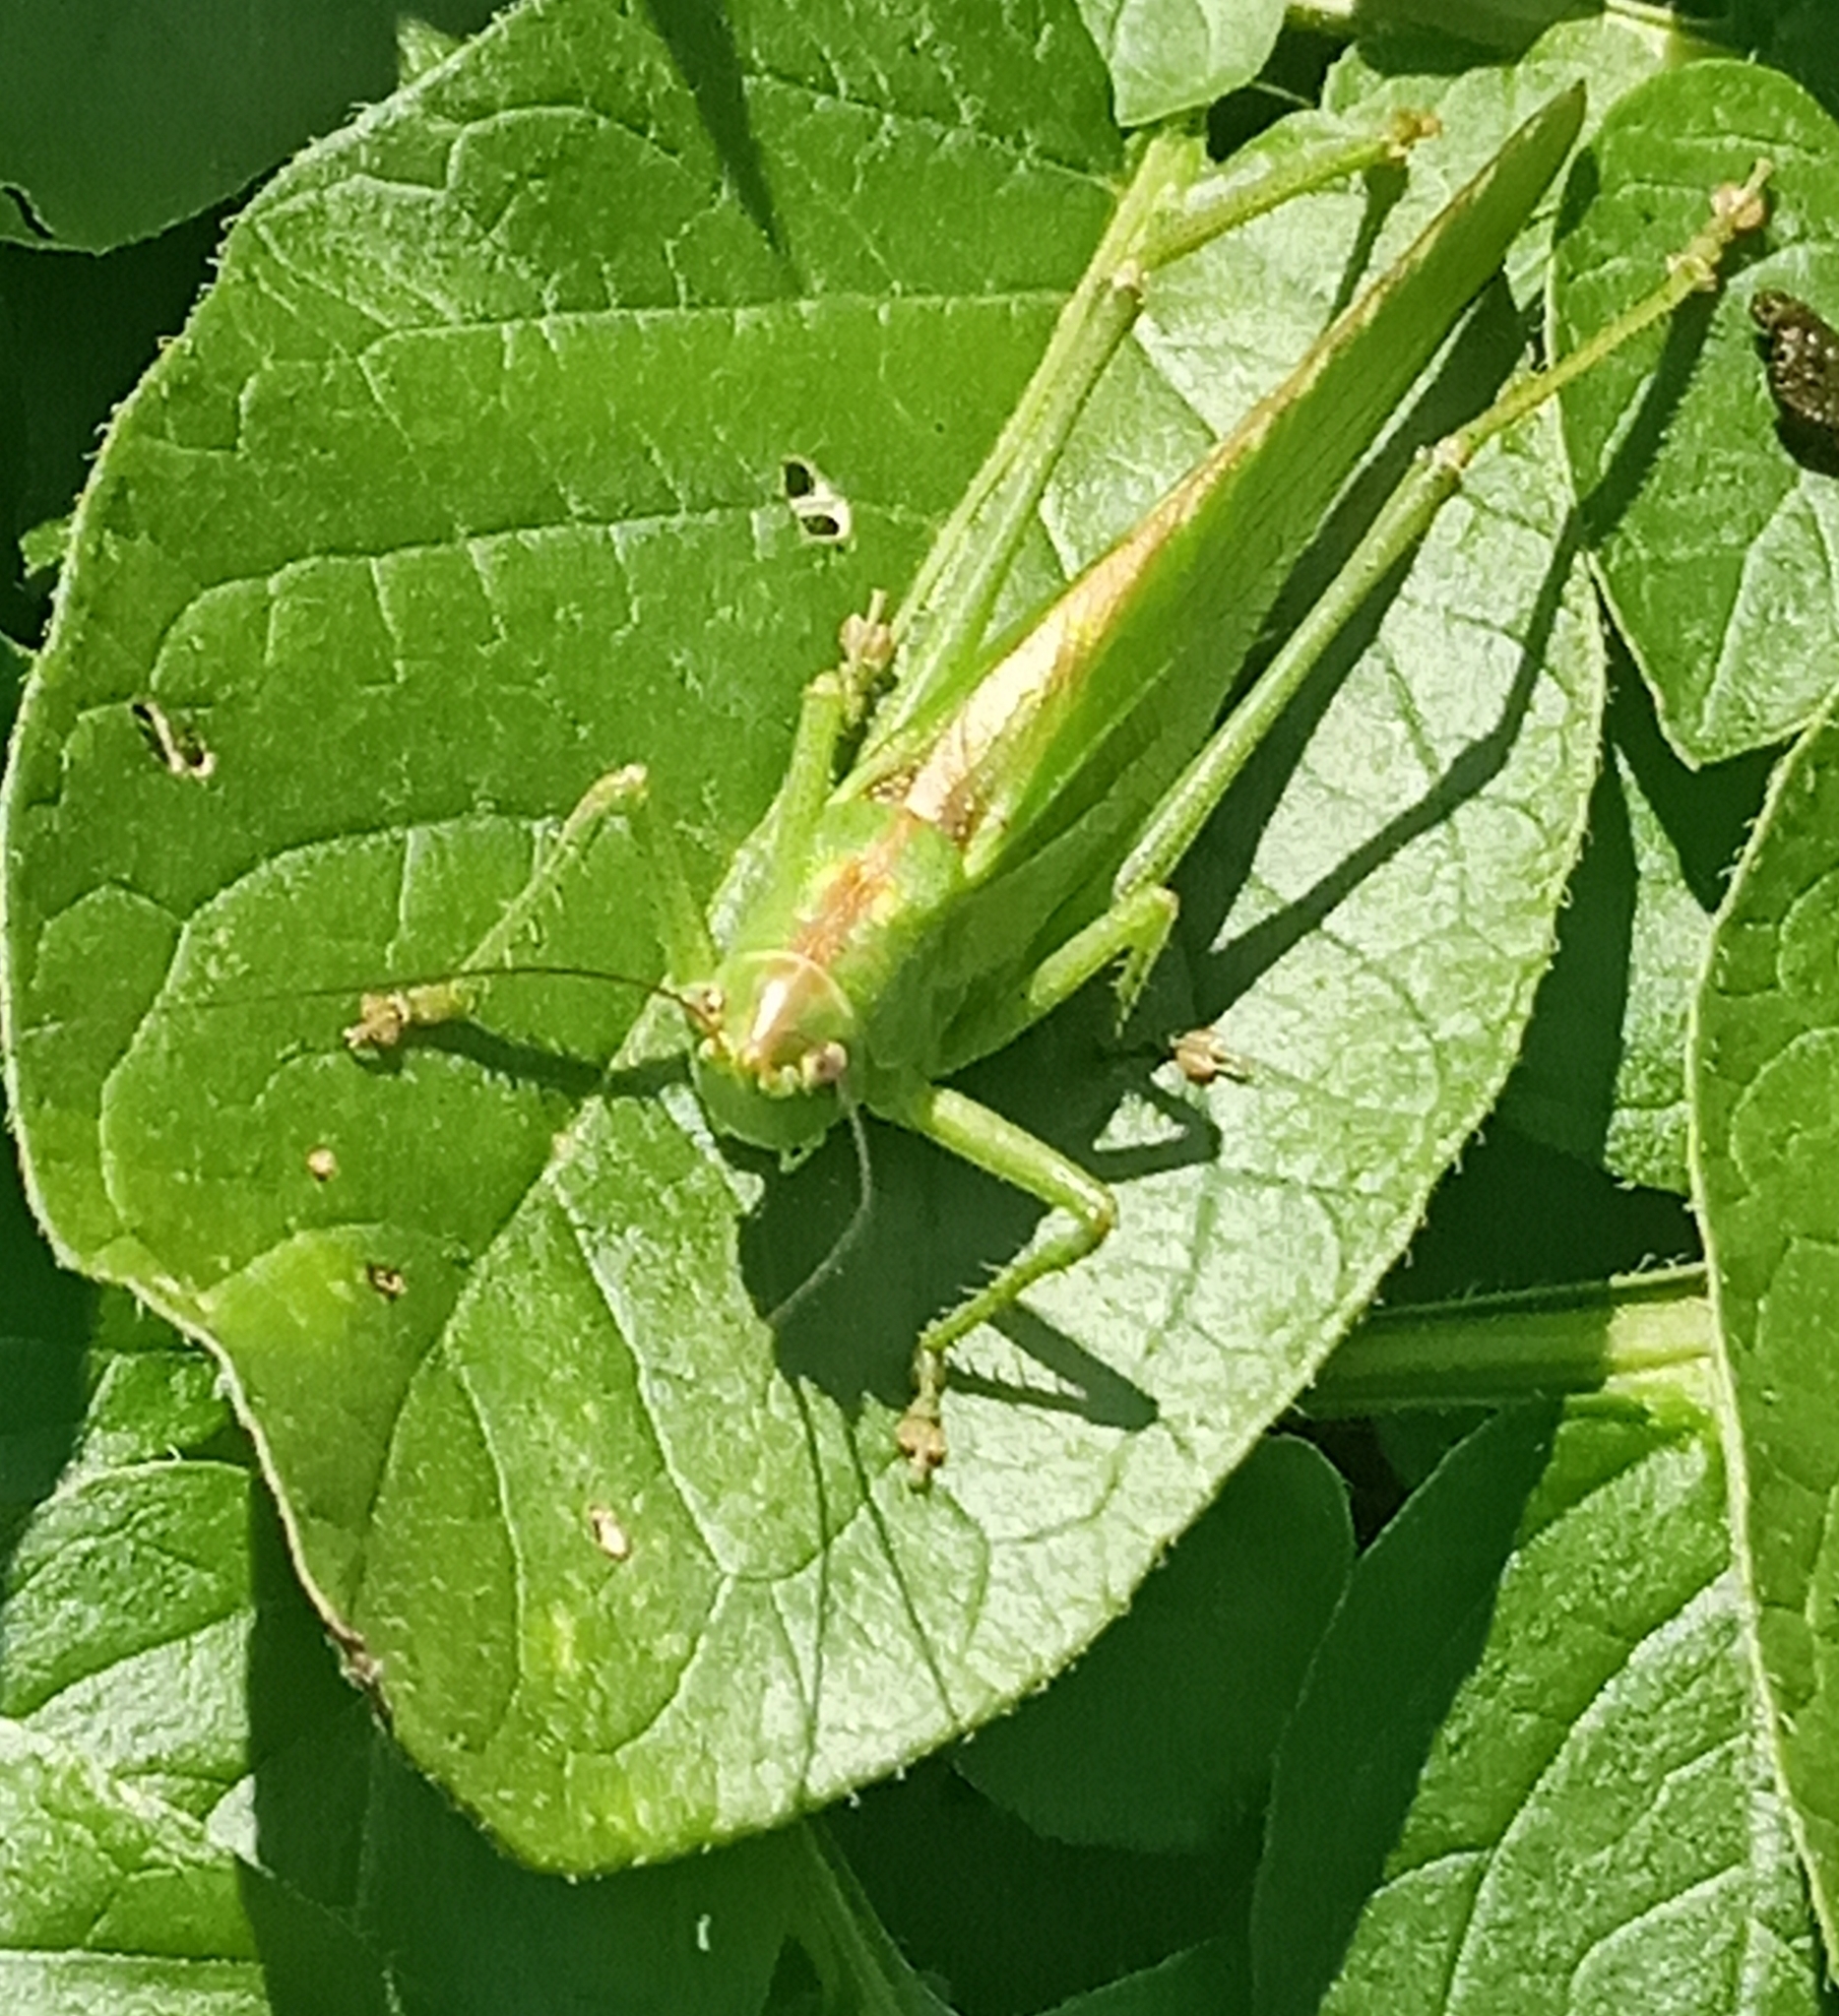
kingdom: Animalia
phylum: Arthropoda
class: Insecta
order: Orthoptera
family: Tettigoniidae
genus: Tettigonia
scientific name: Tettigonia viridissima
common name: Great green bush-cricket
